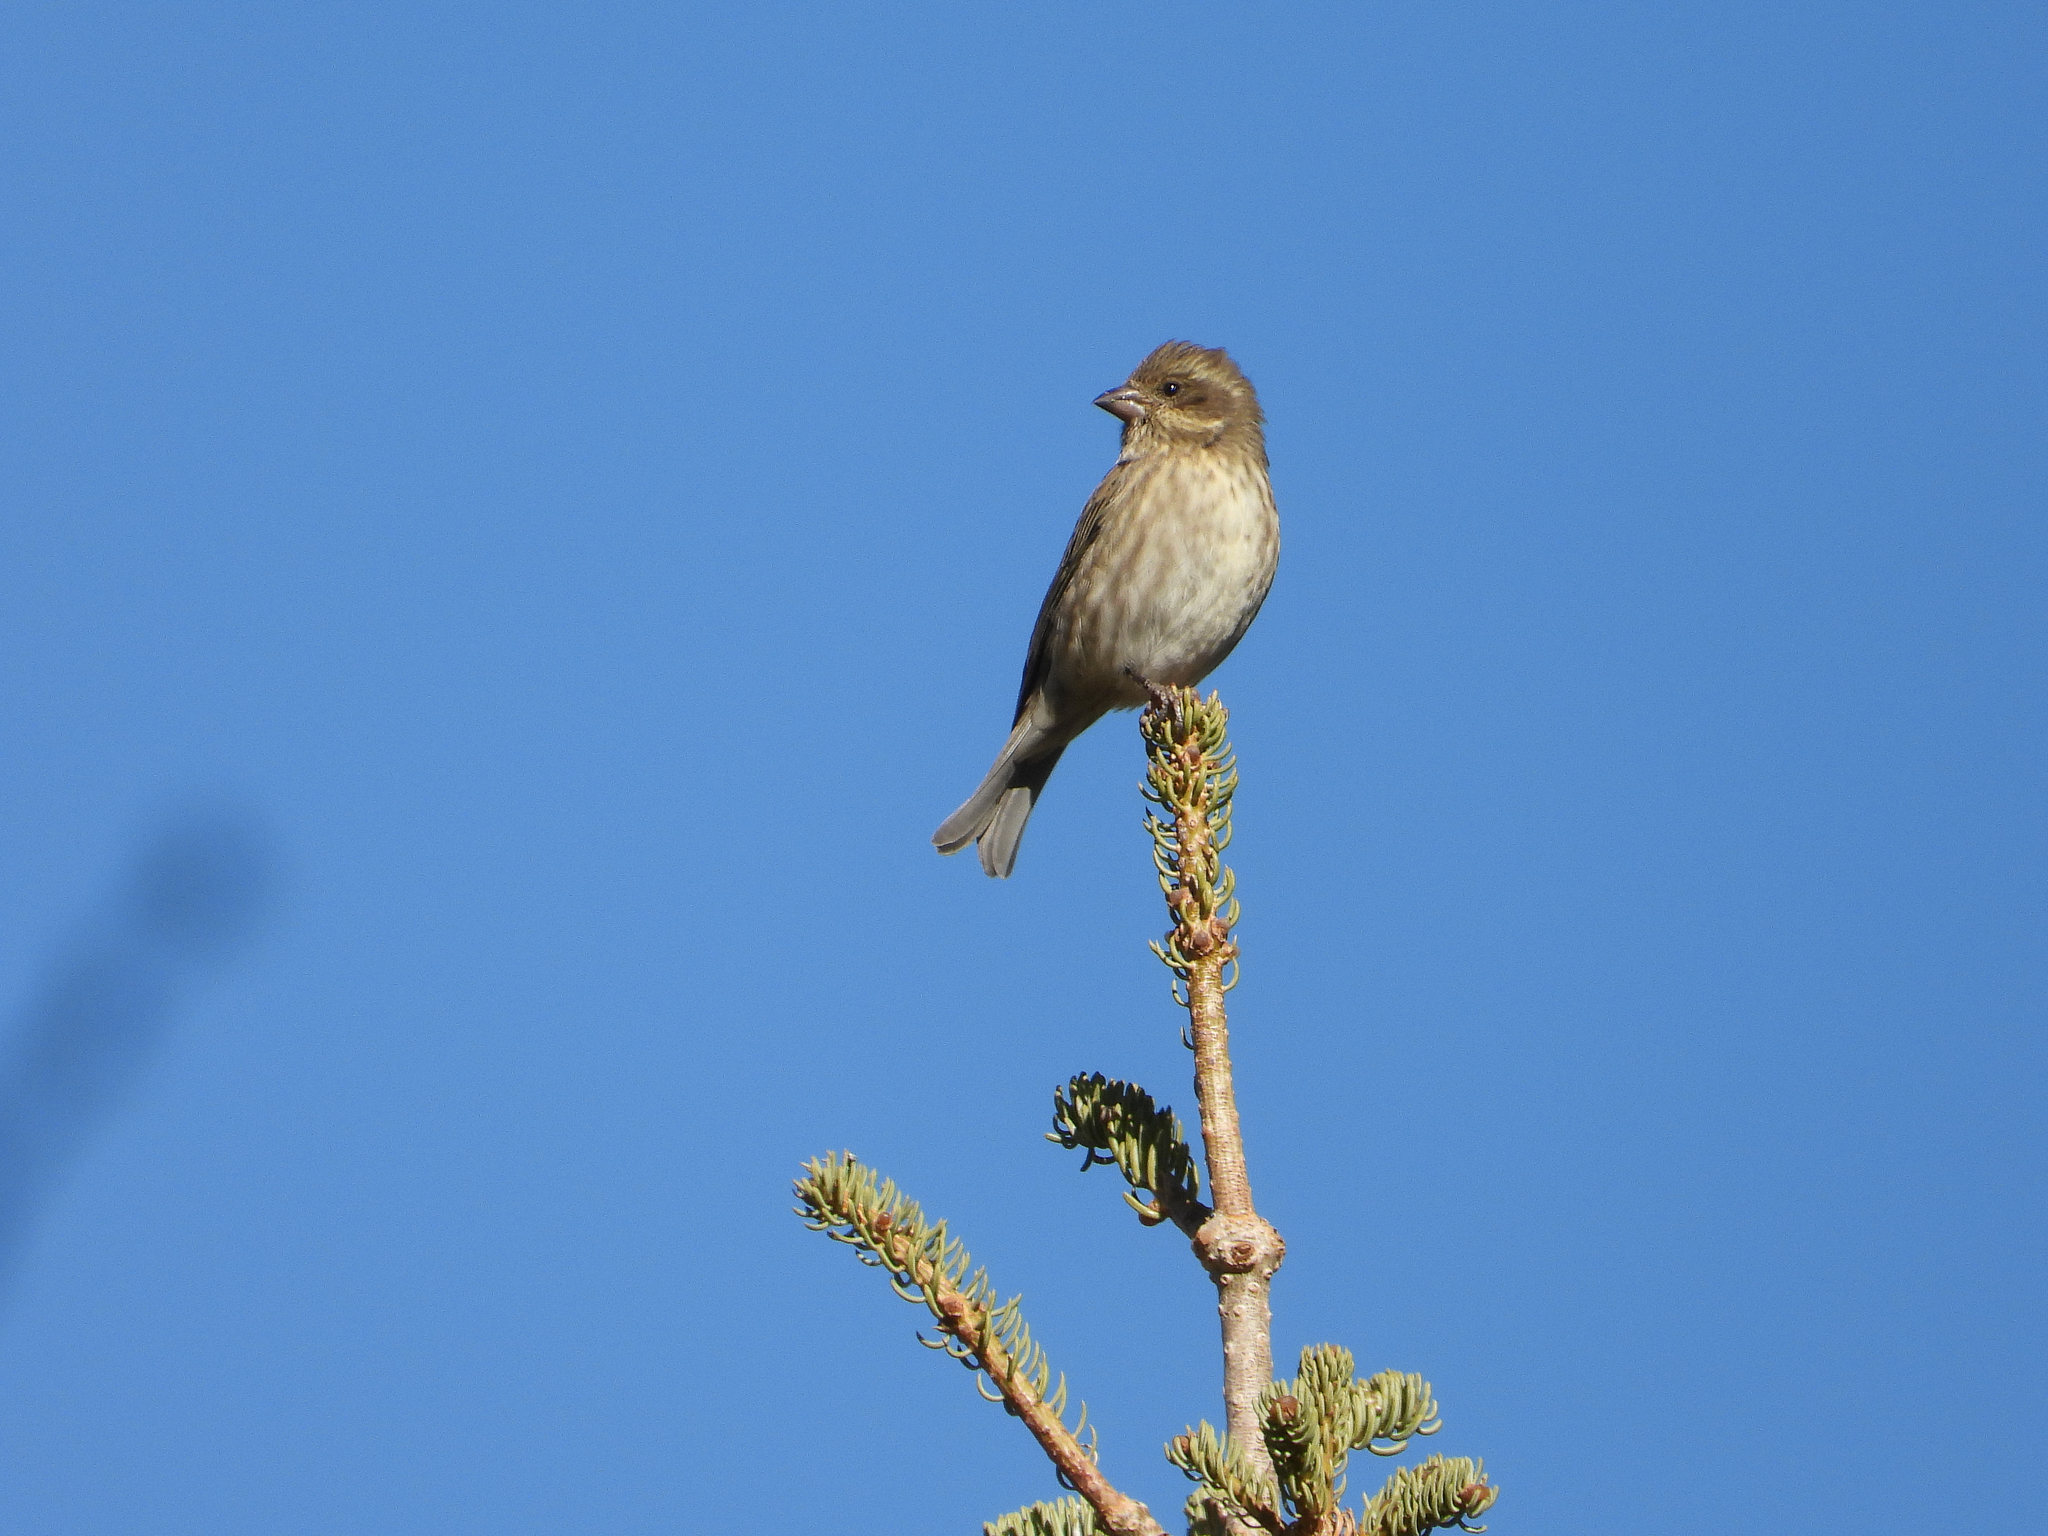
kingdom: Animalia
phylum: Chordata
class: Aves
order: Passeriformes
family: Fringillidae
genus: Haemorhous
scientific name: Haemorhous purpureus
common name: Purple finch
